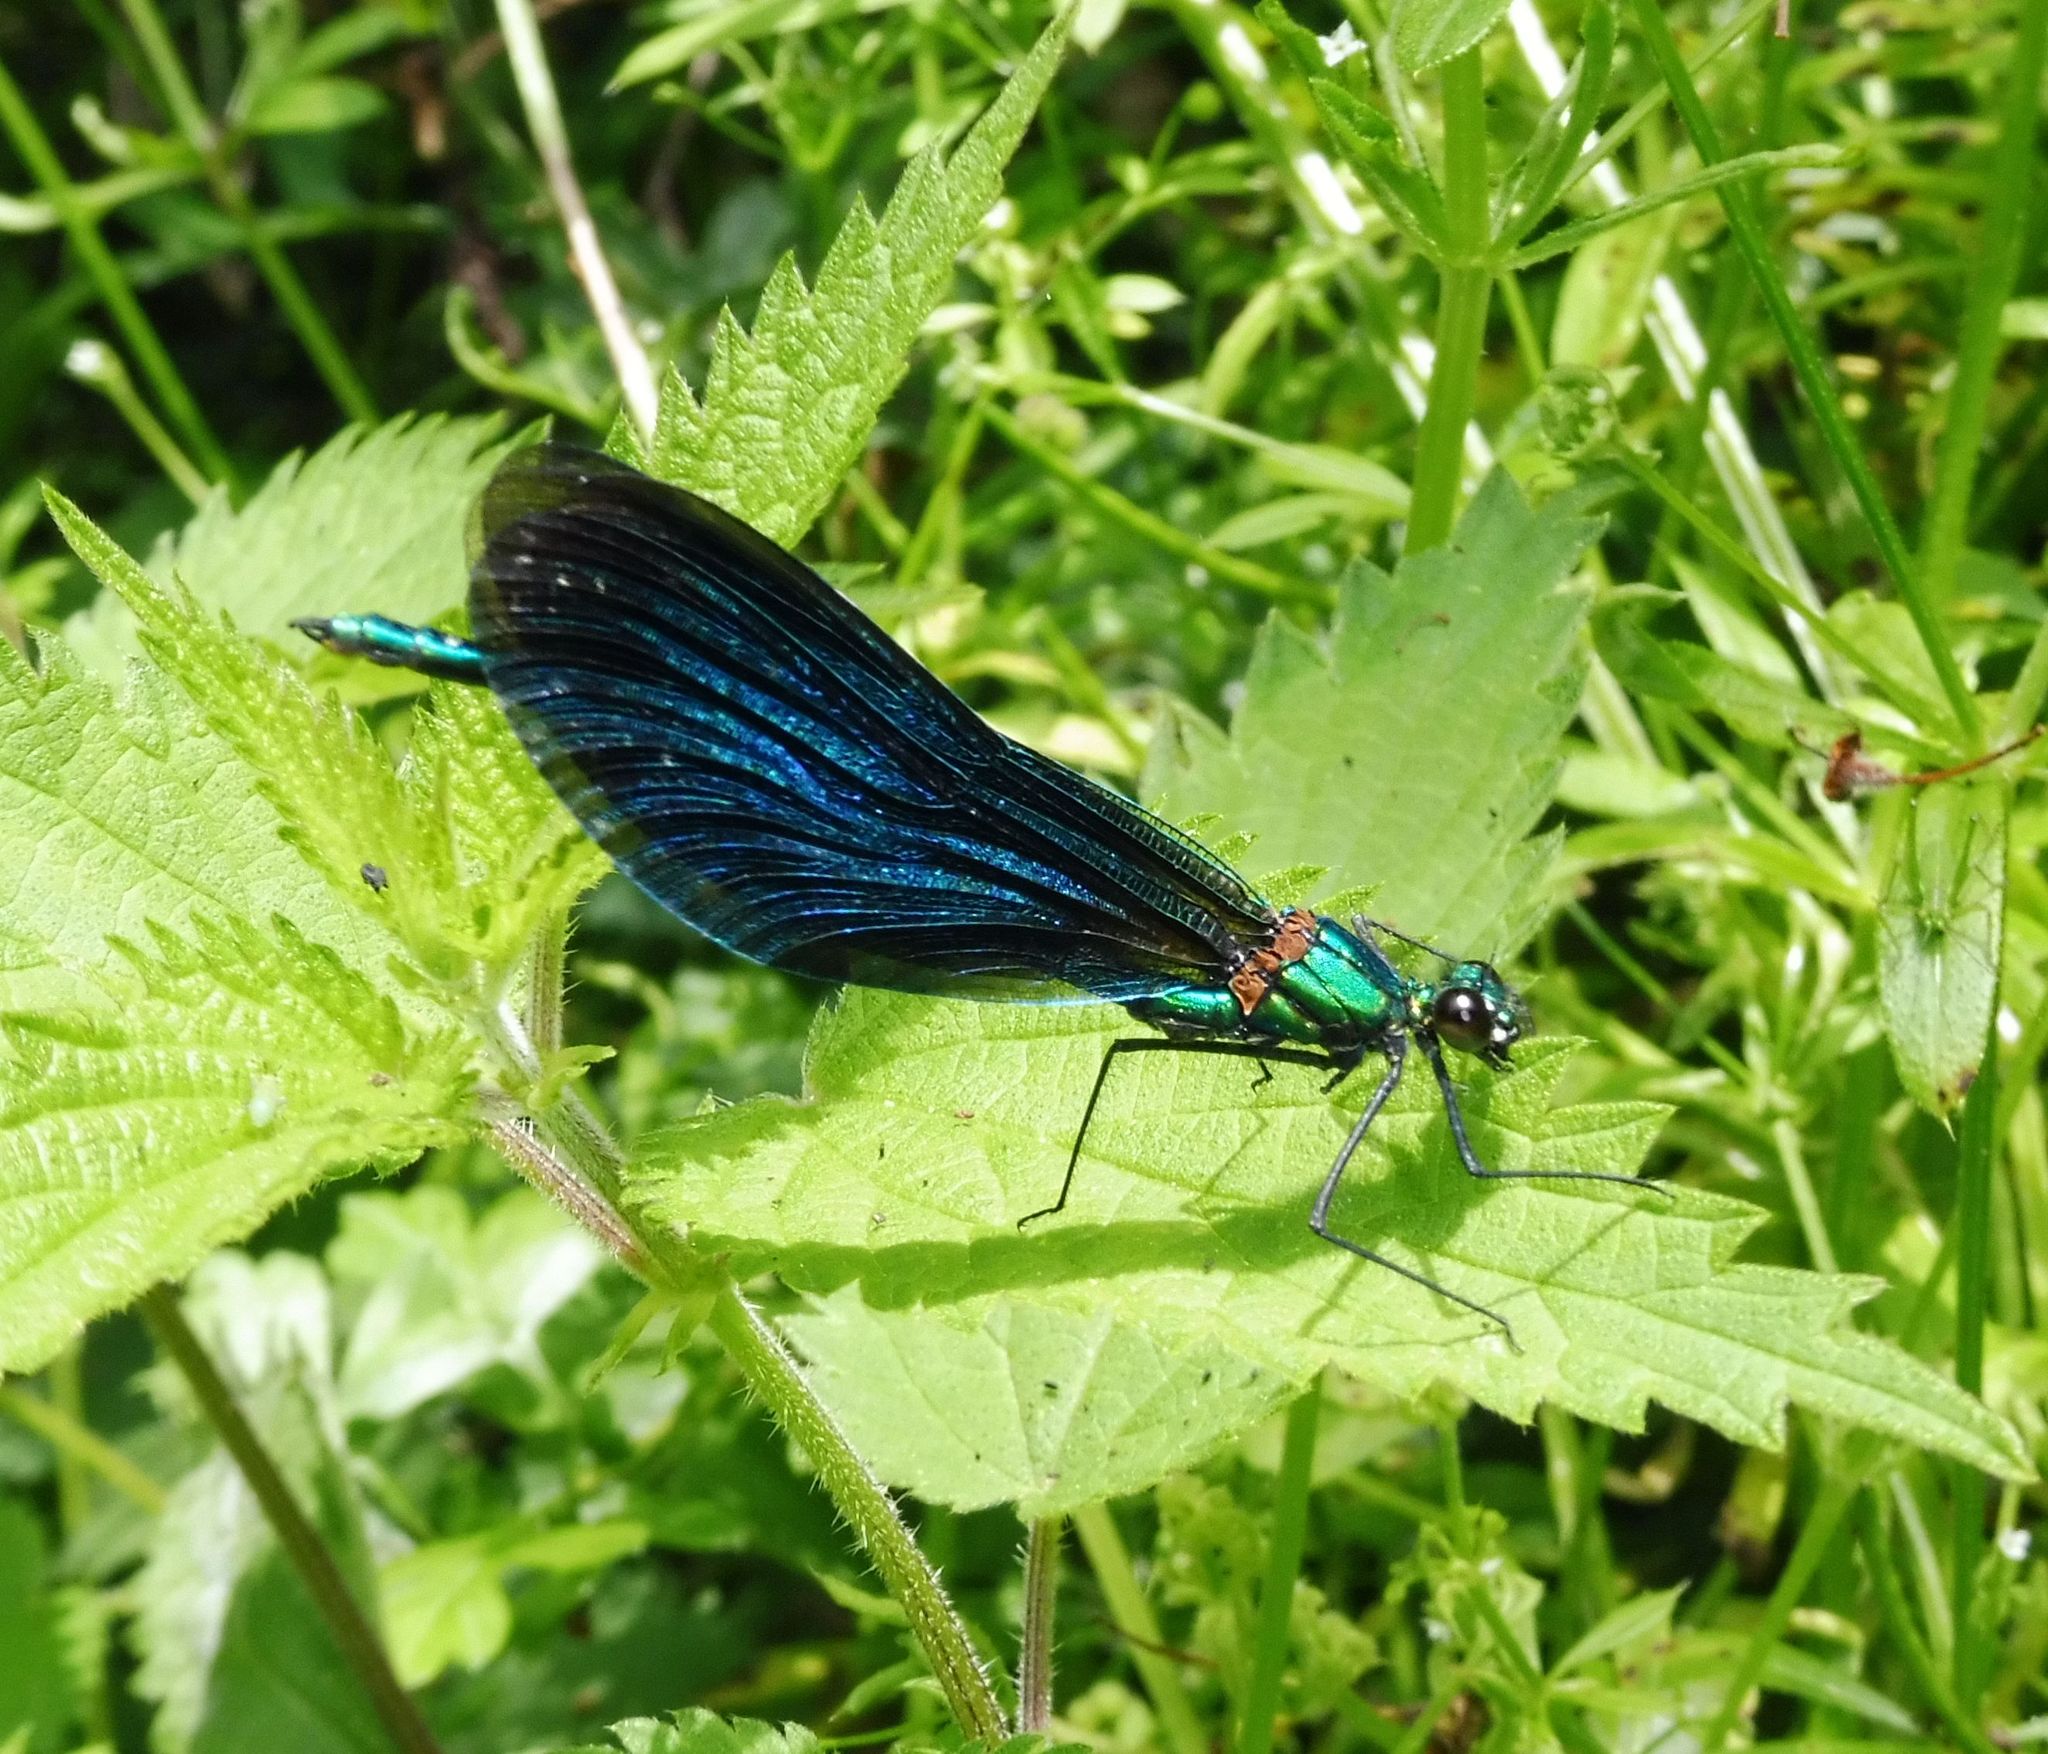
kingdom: Animalia
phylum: Arthropoda
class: Insecta
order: Odonata
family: Calopterygidae
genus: Calopteryx
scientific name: Calopteryx virgo
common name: Beautiful demoiselle
